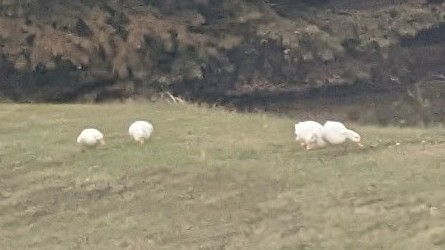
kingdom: Animalia
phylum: Chordata
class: Aves
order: Anseriformes
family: Anatidae
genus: Anas
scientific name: Anas platyrhynchos
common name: Mallard
